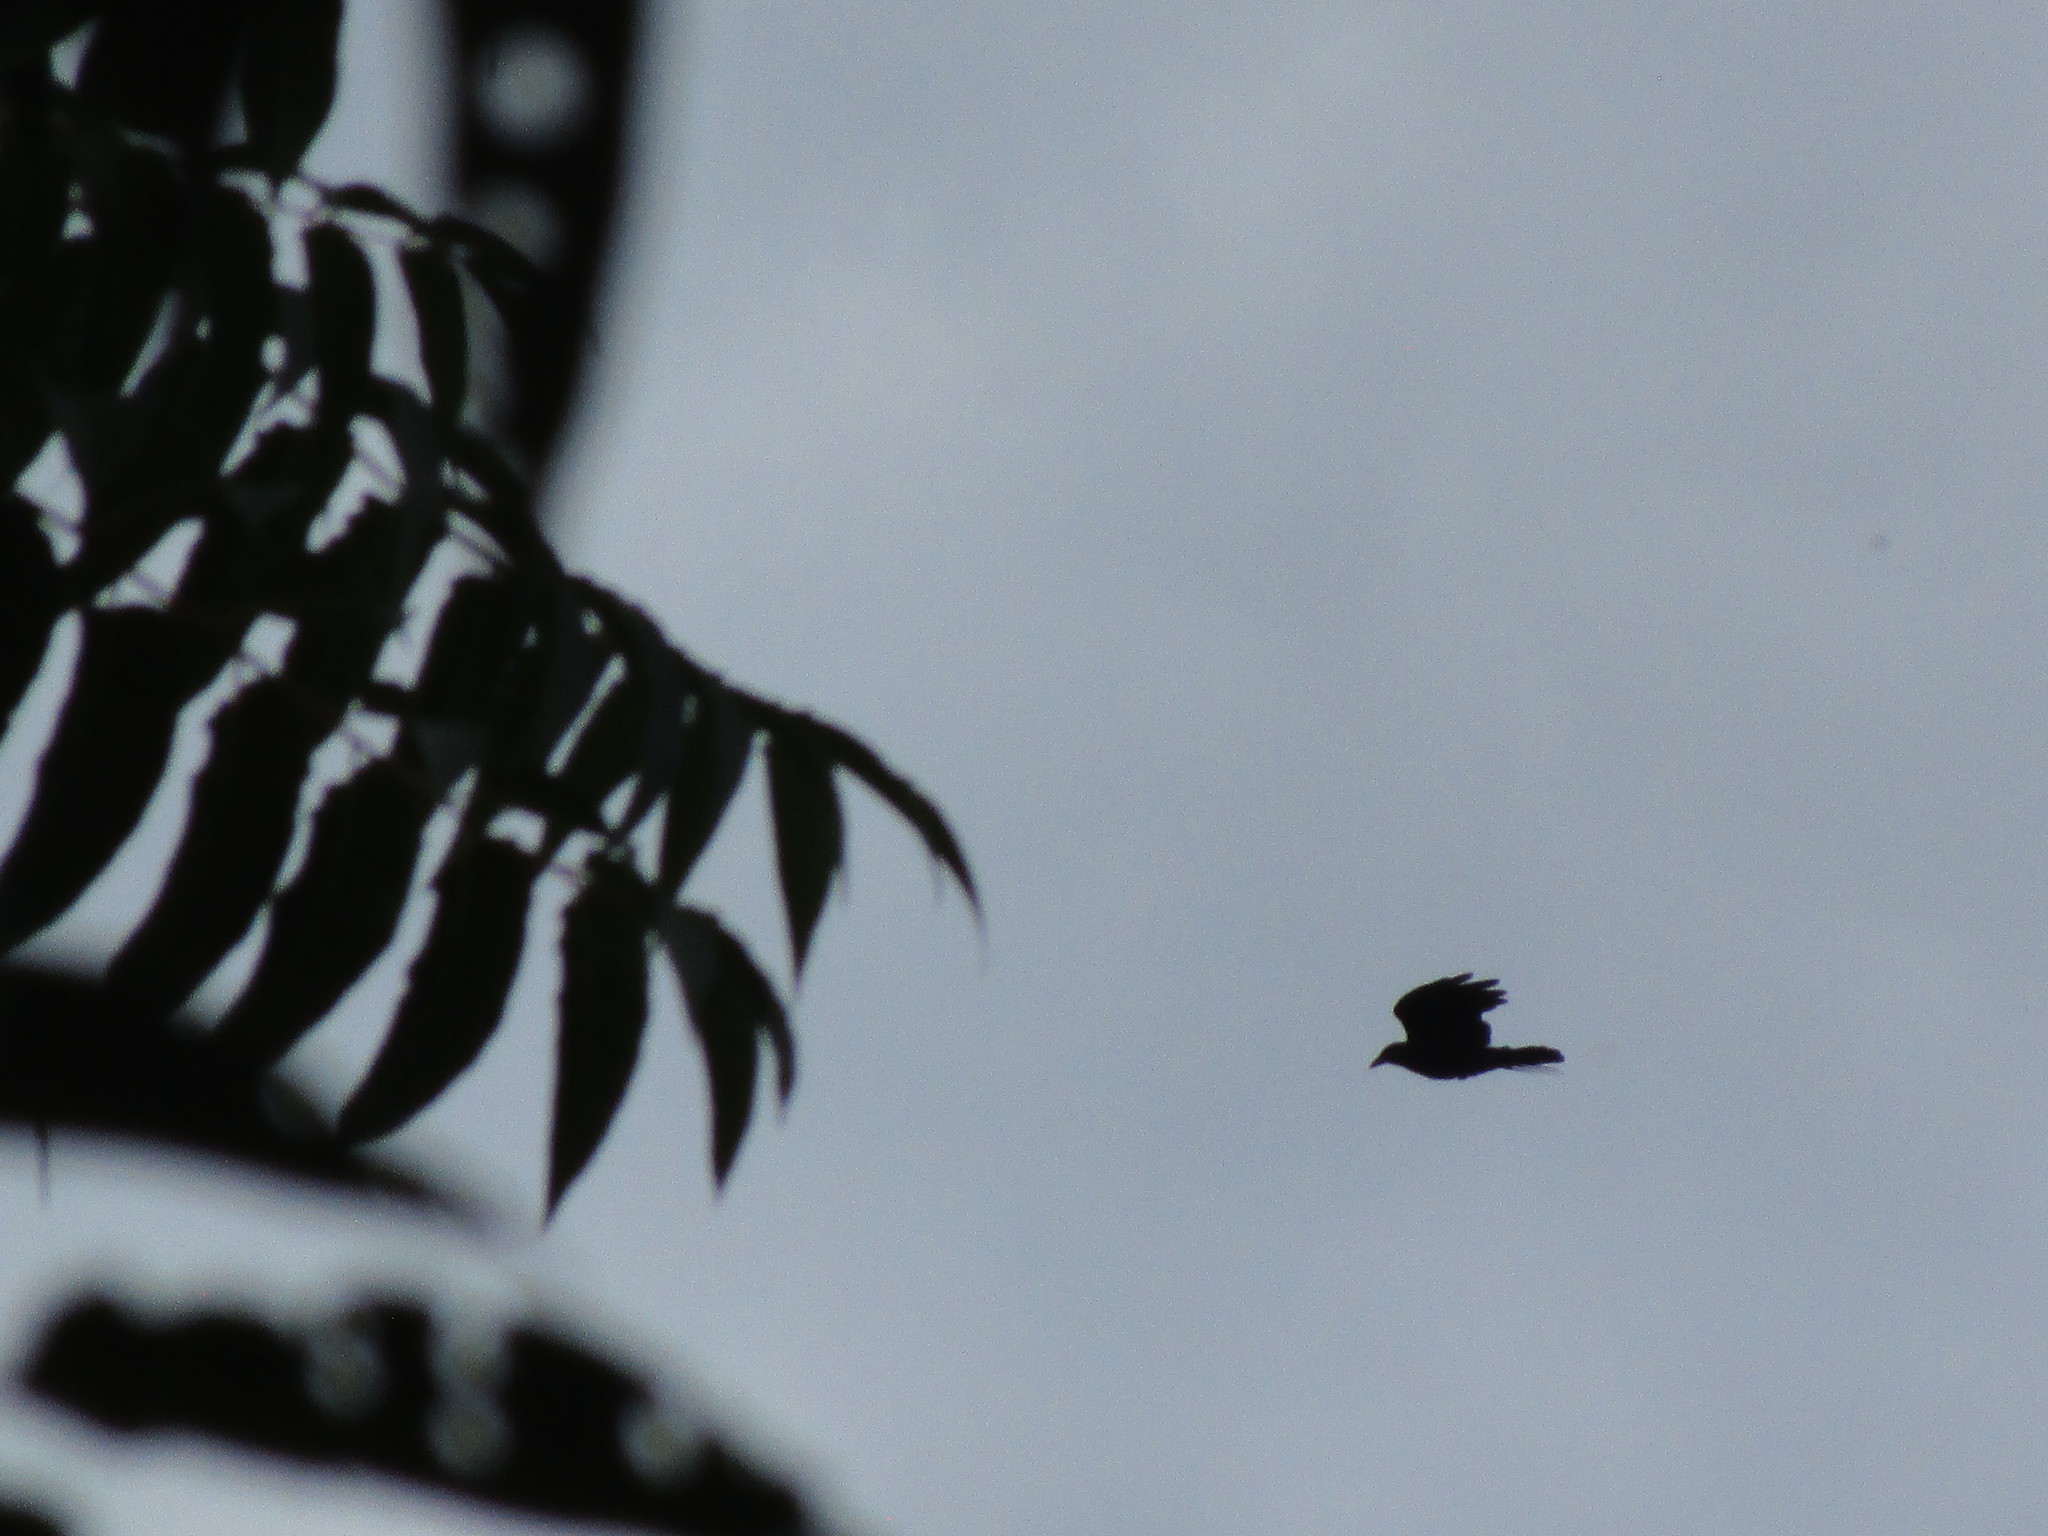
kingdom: Animalia
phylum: Chordata
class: Aves
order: Passeriformes
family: Corvidae
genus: Corvus
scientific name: Corvus brachyrhynchos
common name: American crow
